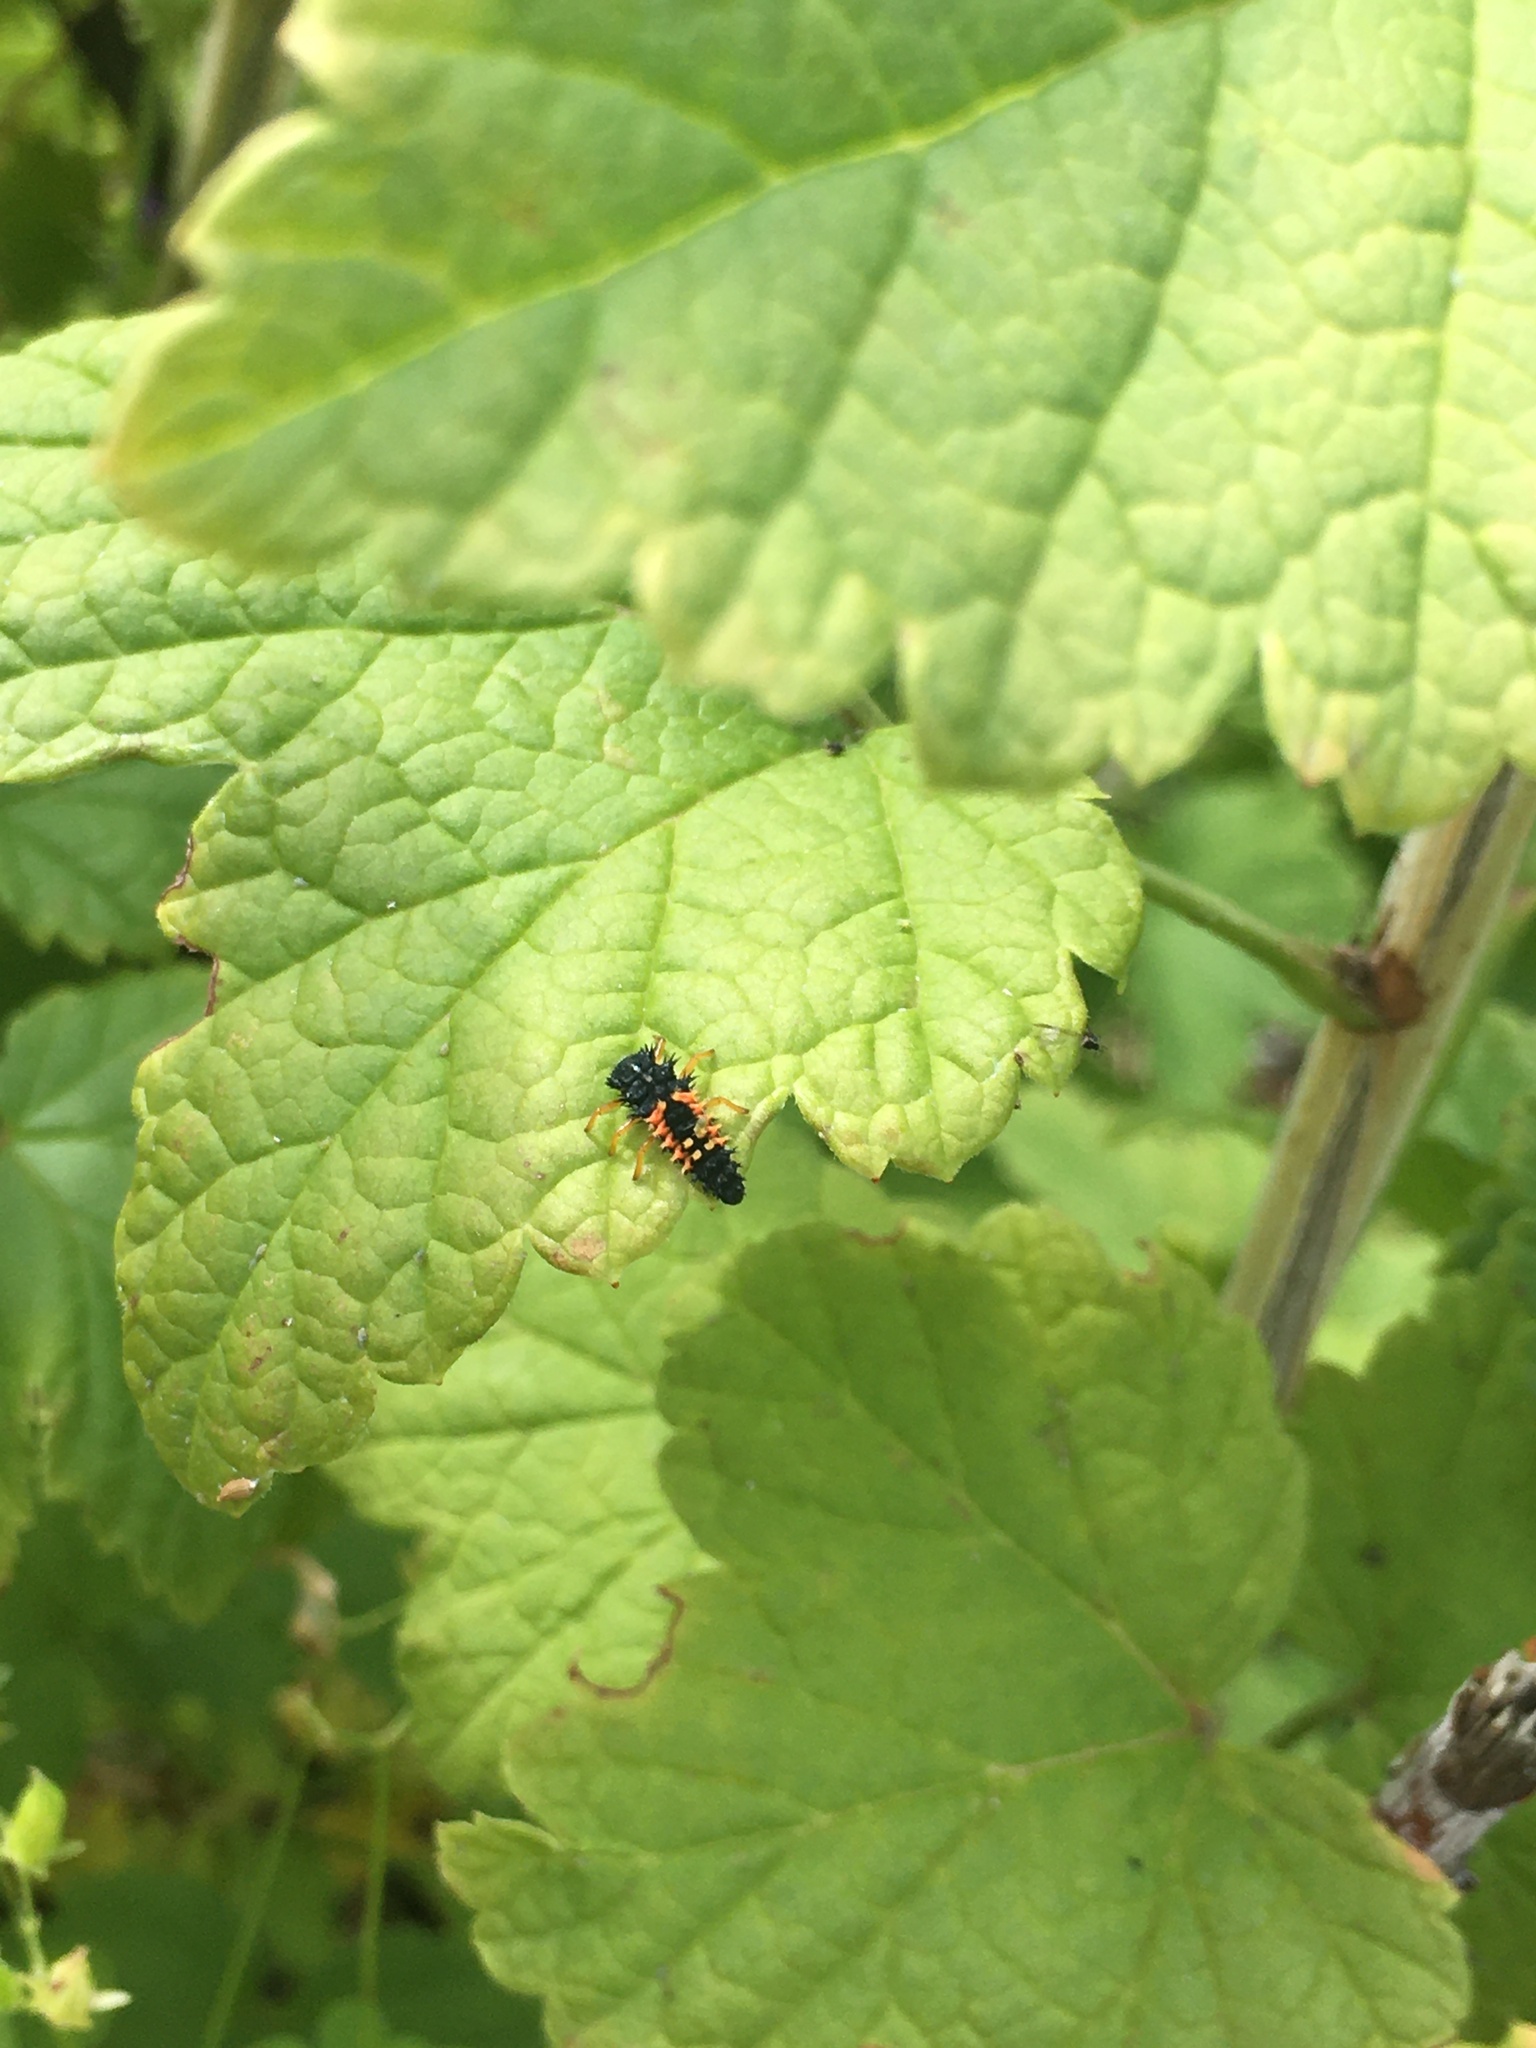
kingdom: Animalia
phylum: Arthropoda
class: Insecta
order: Coleoptera
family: Coccinellidae
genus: Harmonia
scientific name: Harmonia axyridis
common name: Harlequin ladybird
